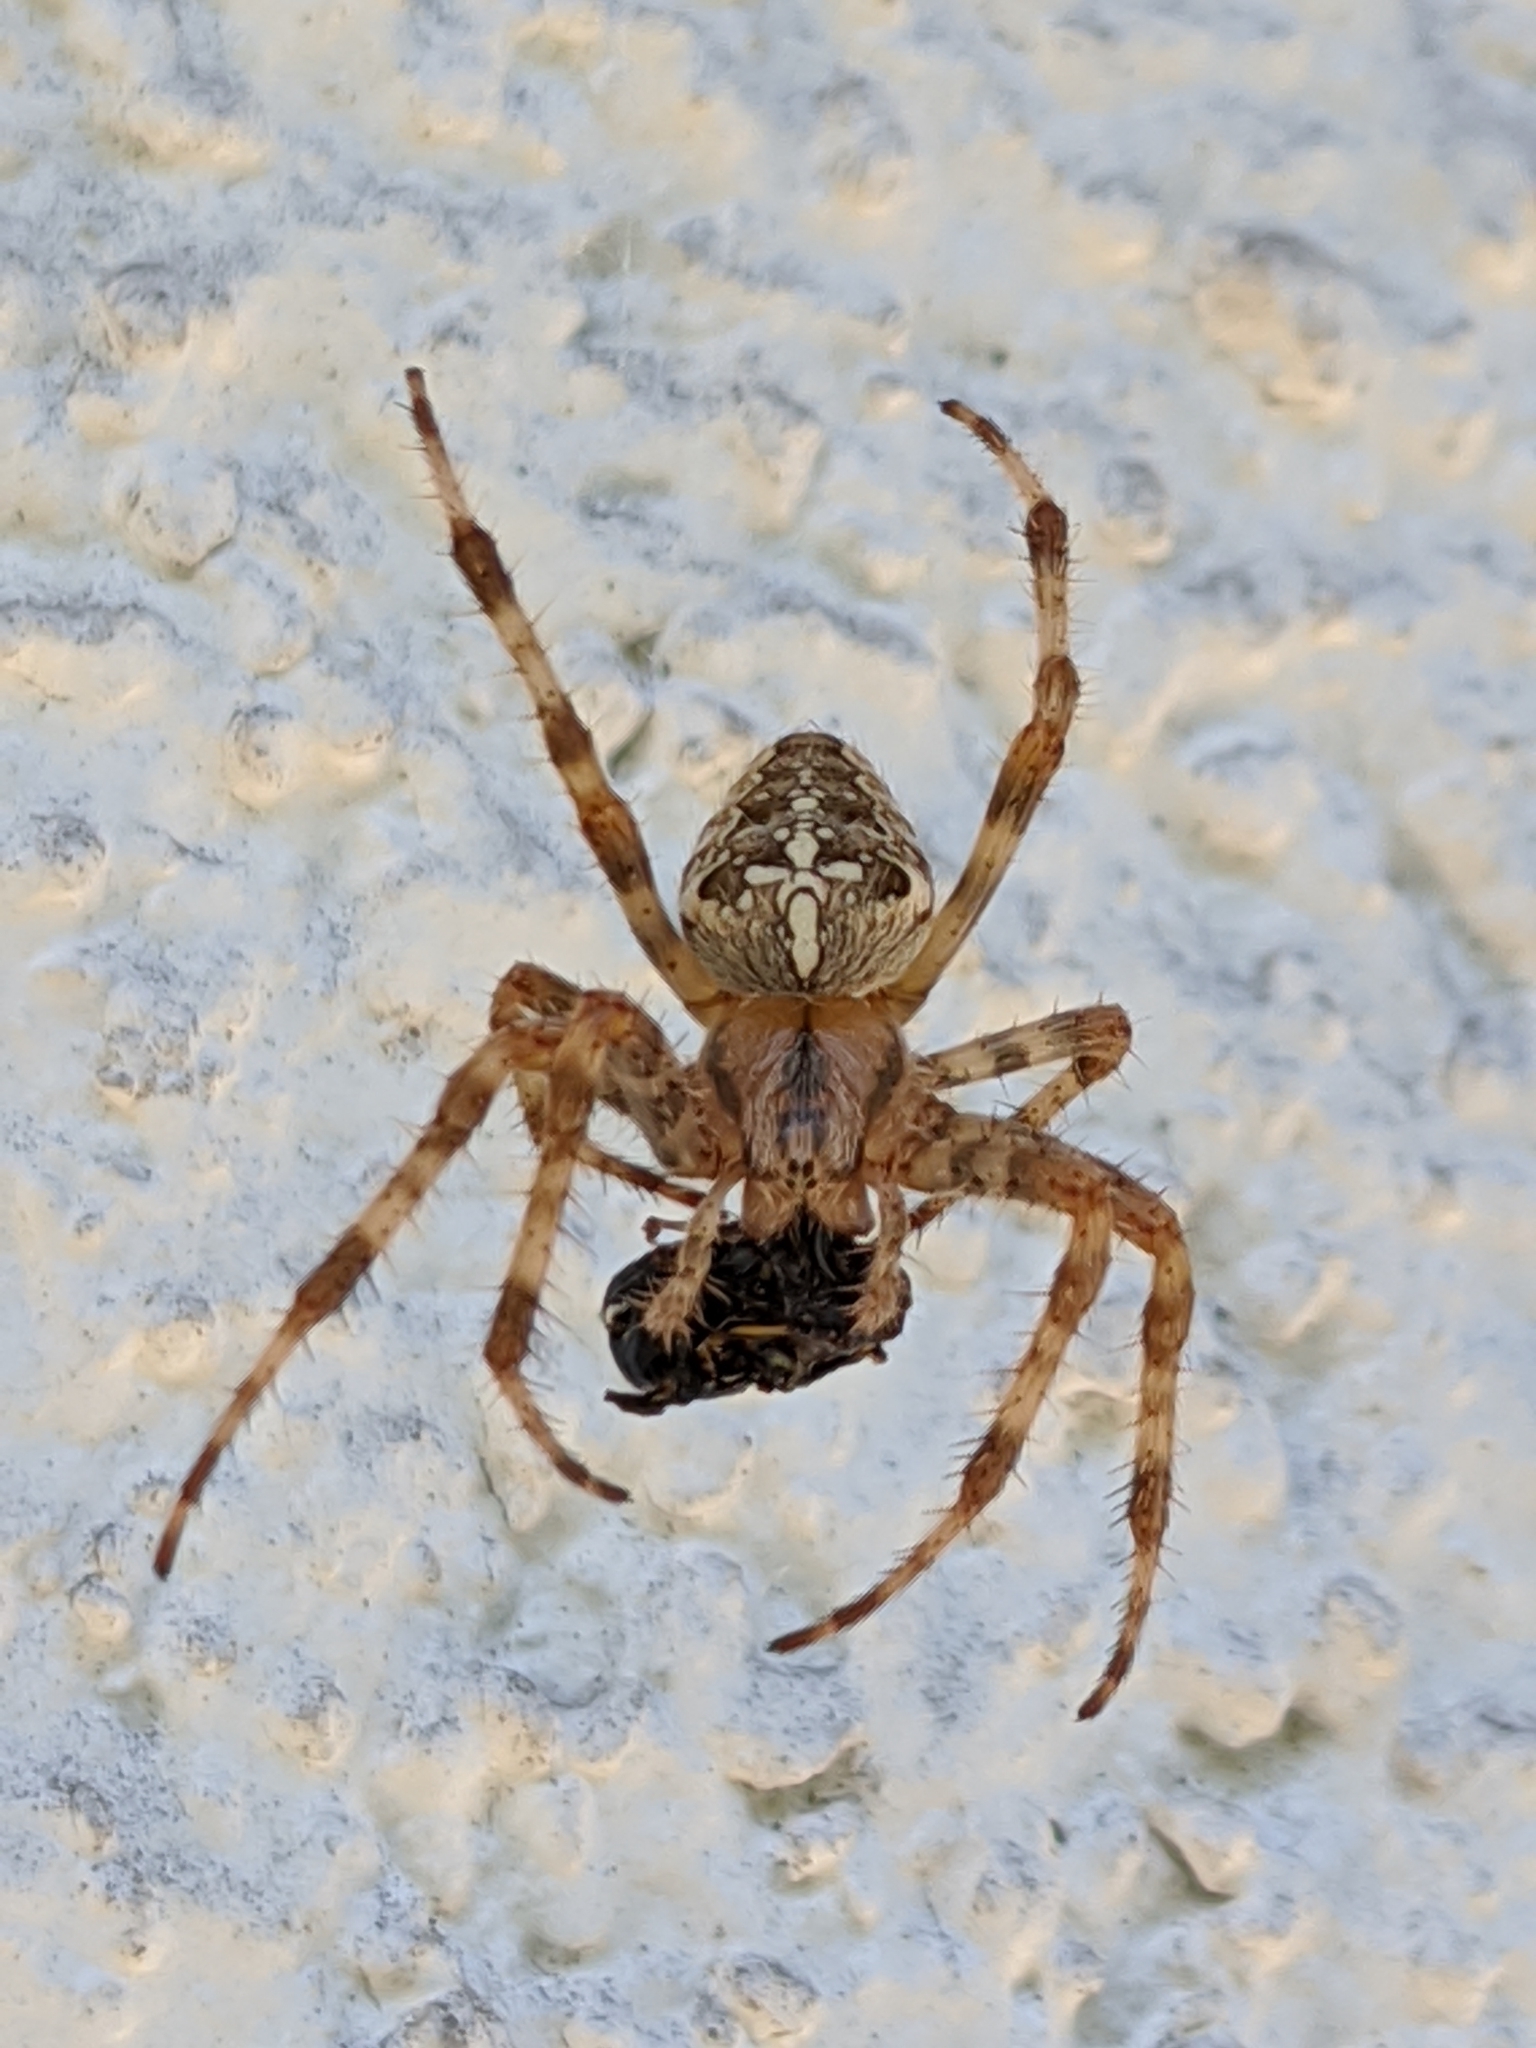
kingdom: Animalia
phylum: Arthropoda
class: Arachnida
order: Araneae
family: Araneidae
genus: Araneus
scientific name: Araneus diadematus
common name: Cross orbweaver
